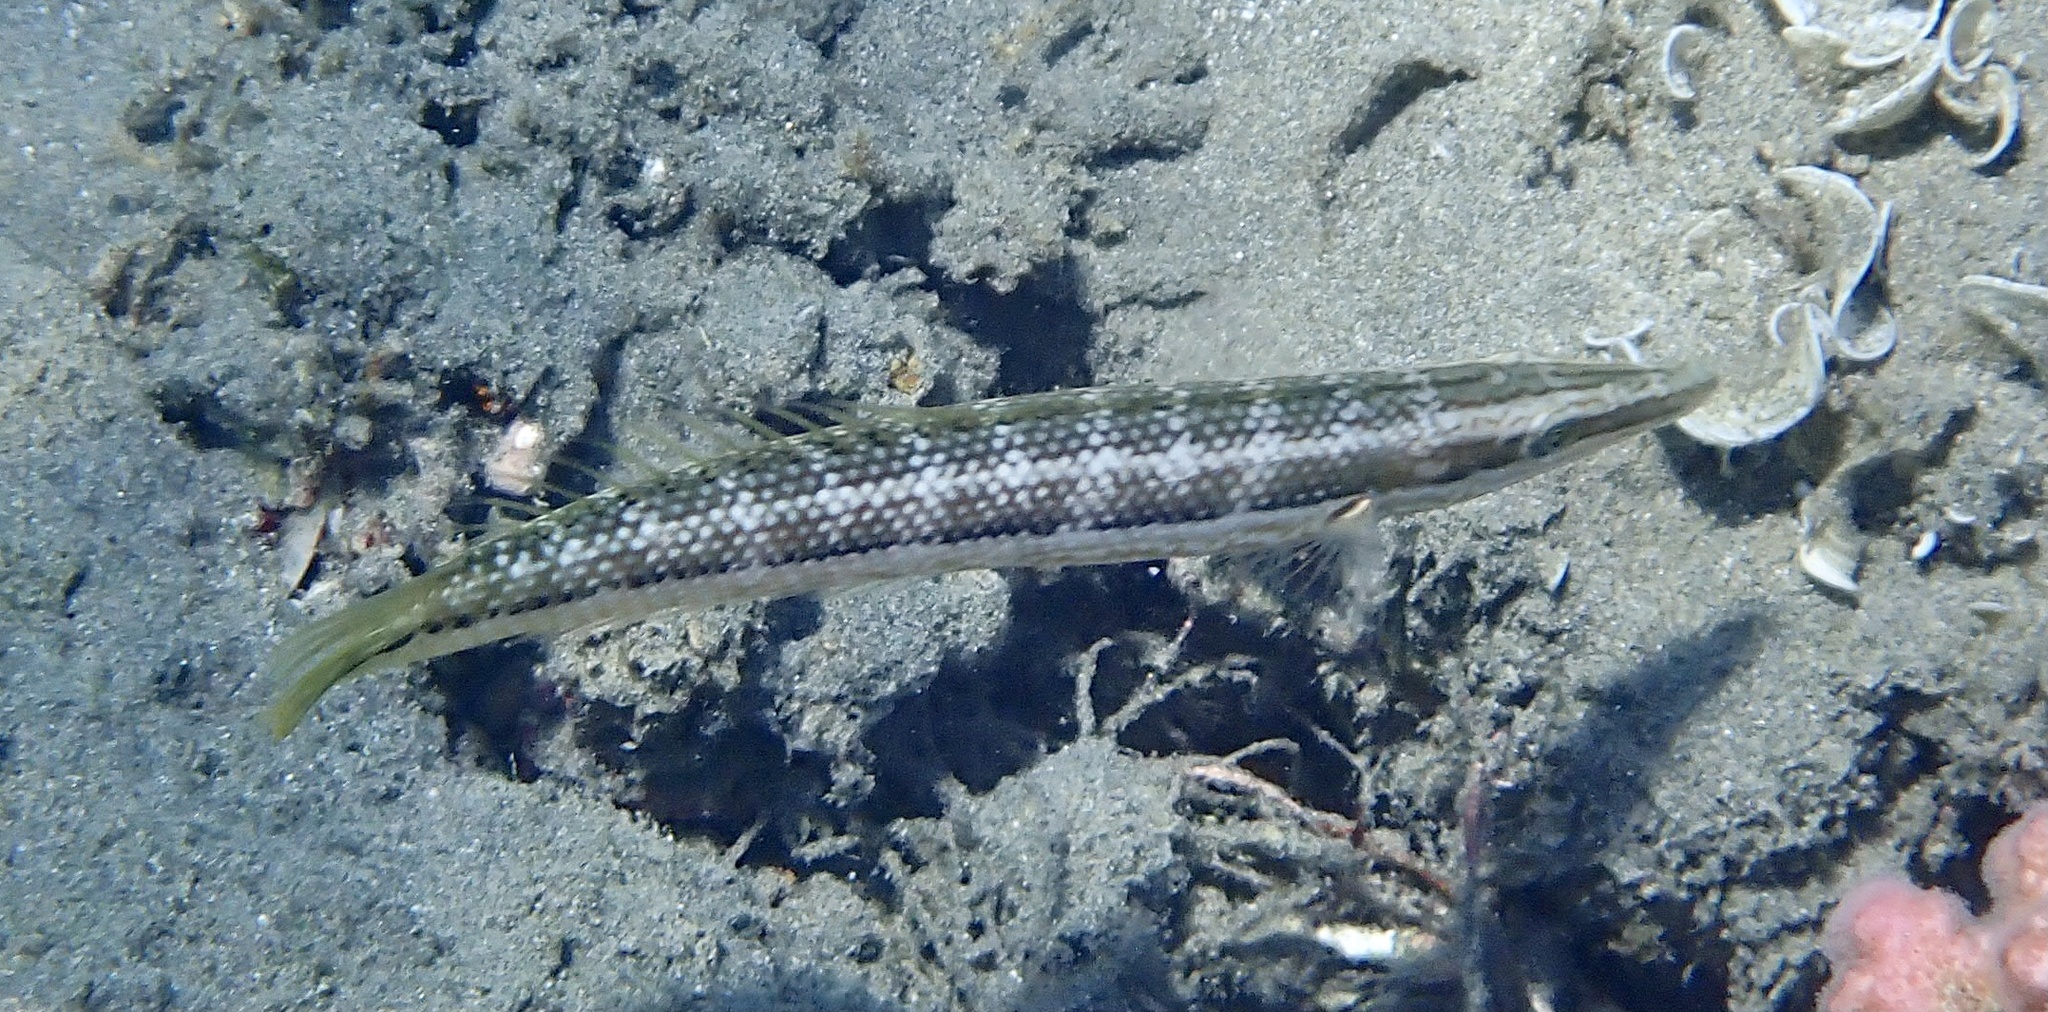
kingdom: Animalia
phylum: Chordata
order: Perciformes
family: Labridae
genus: Cheilio
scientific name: Cheilio inermis
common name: Cigar wrasse
